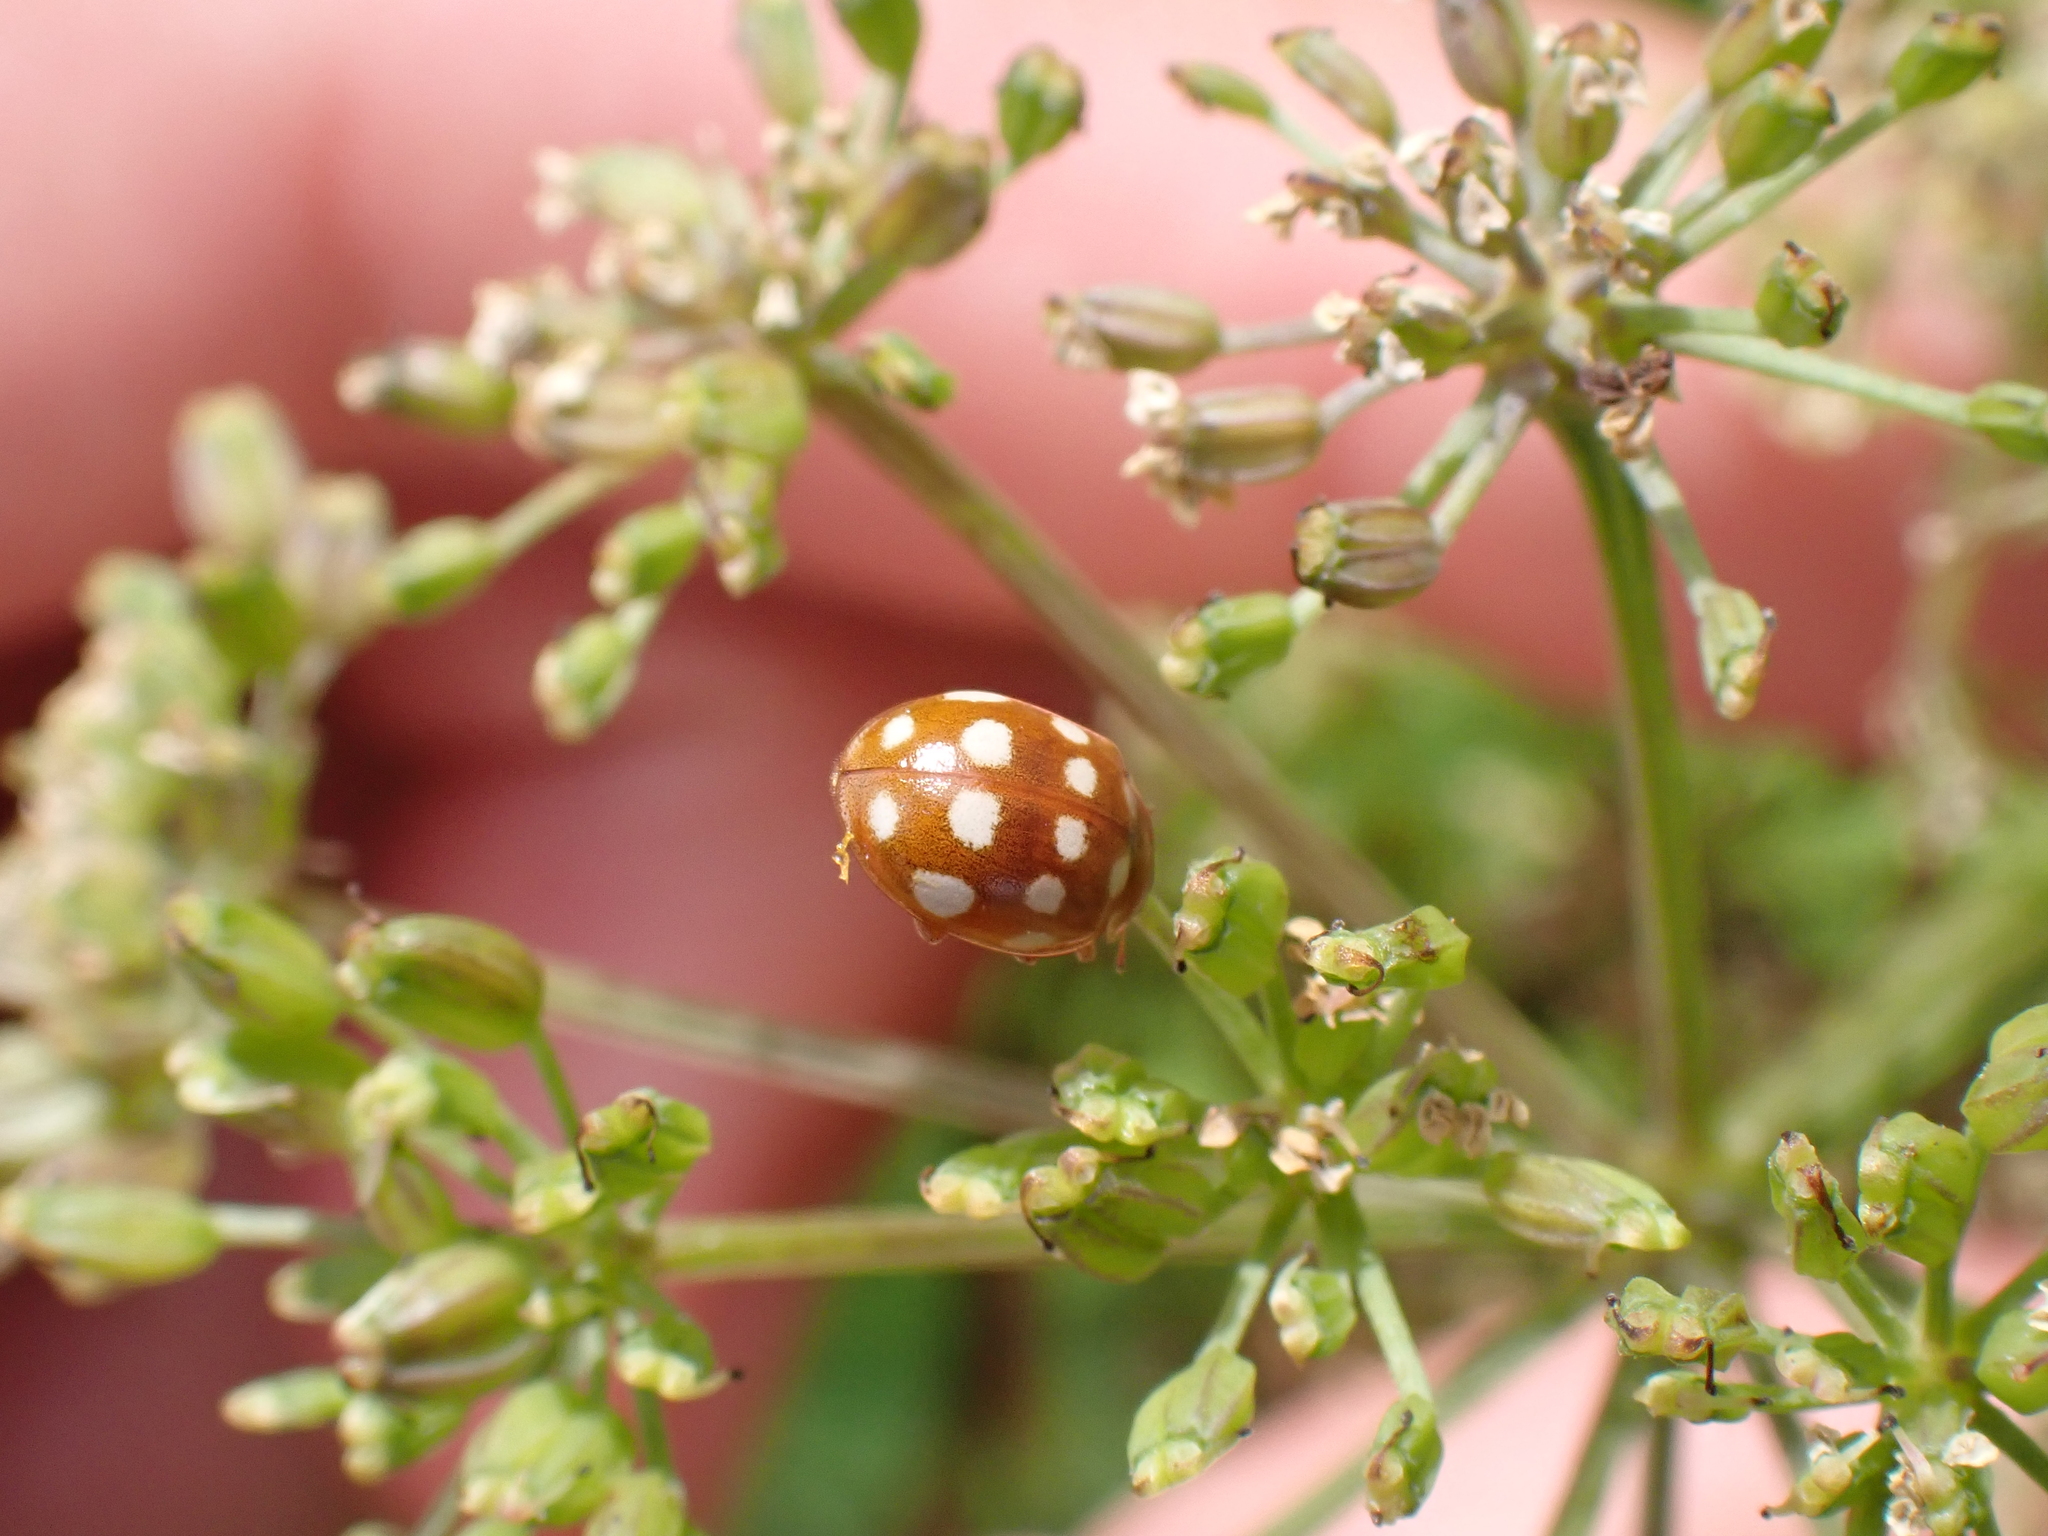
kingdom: Animalia
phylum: Arthropoda
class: Insecta
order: Coleoptera
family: Coccinellidae
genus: Calvia
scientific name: Calvia quatuordecimguttata
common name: Cream-spot ladybird
